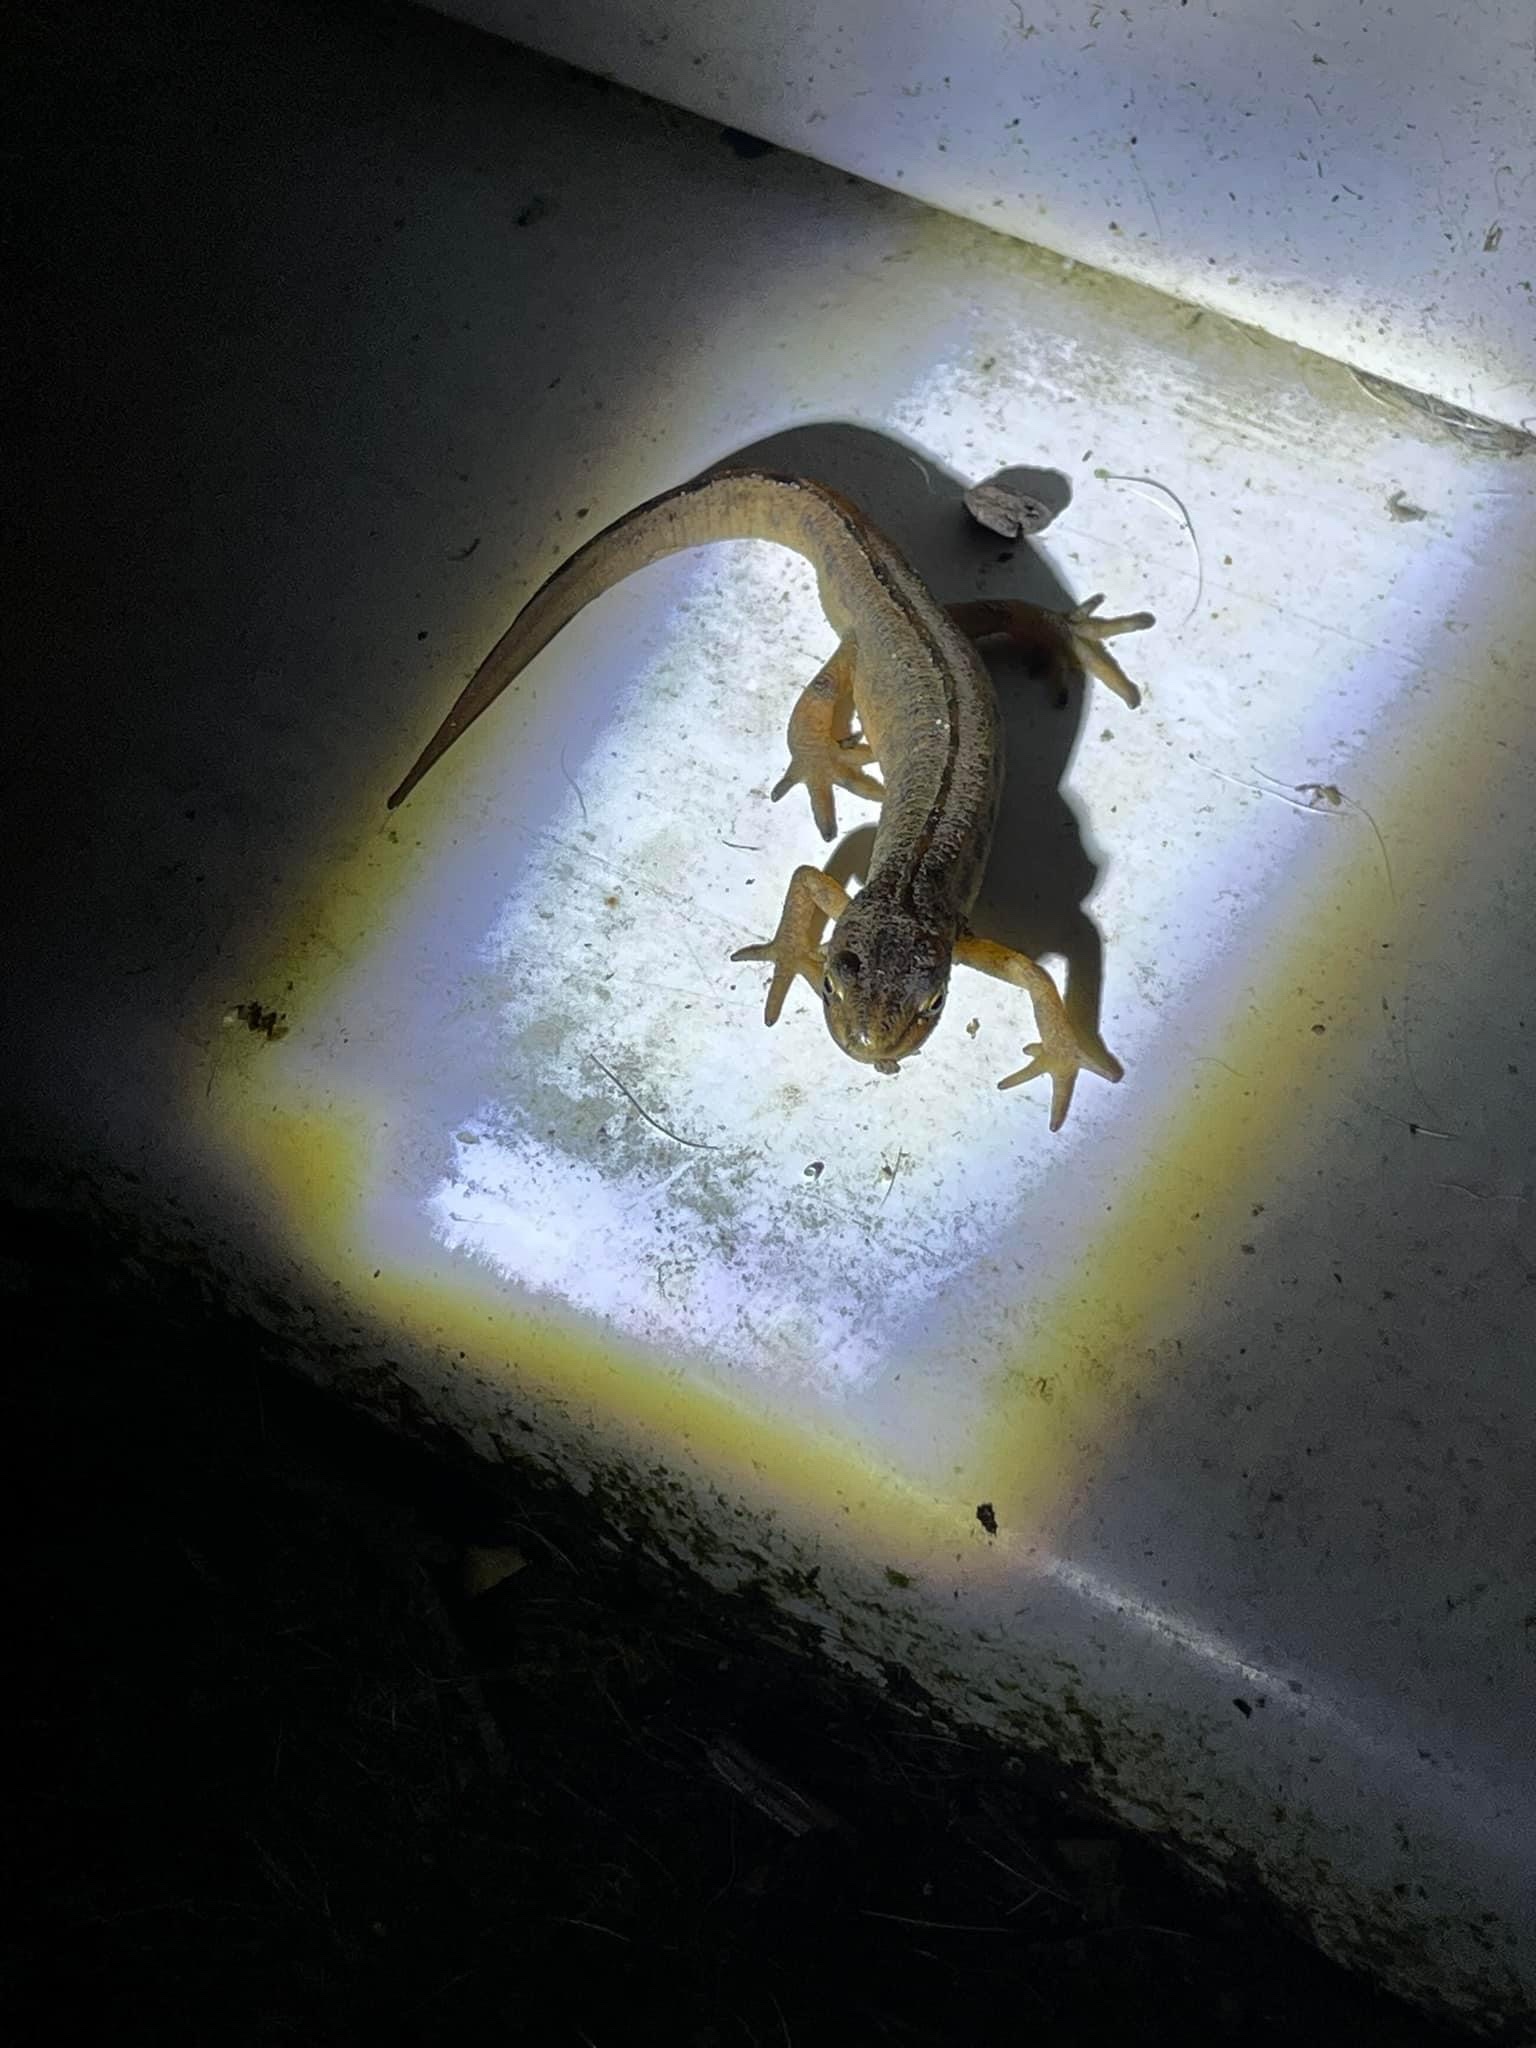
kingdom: Animalia
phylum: Chordata
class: Amphibia
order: Caudata
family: Salamandridae
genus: Lissotriton
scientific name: Lissotriton vulgaris
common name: Smooth newt
